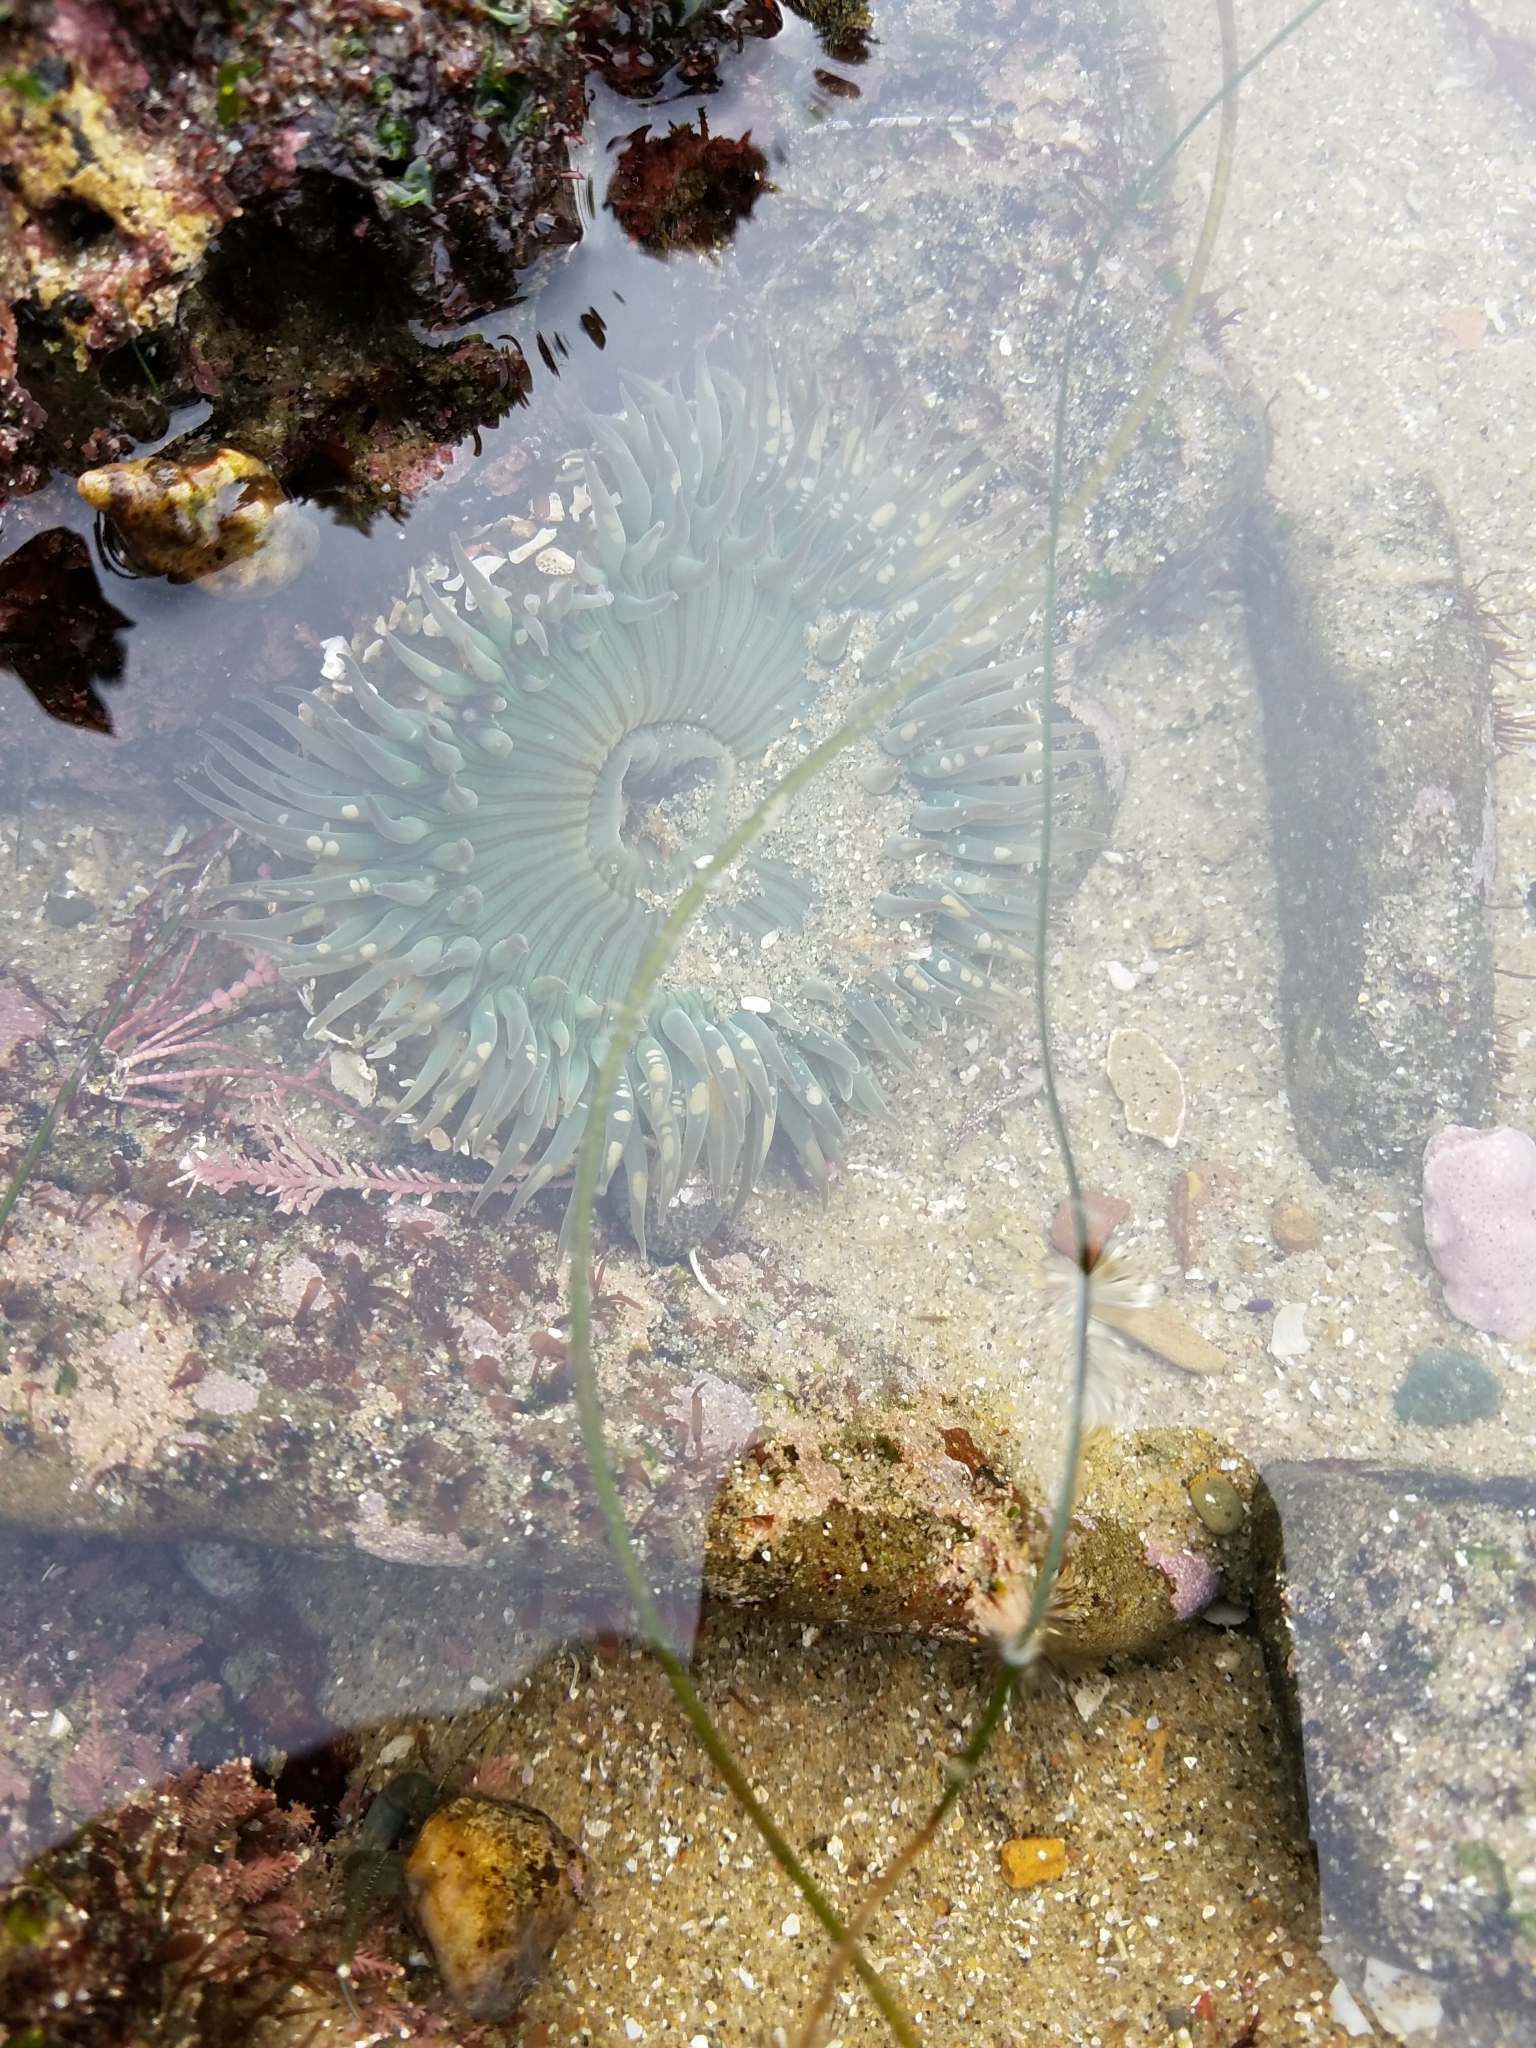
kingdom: Animalia
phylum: Cnidaria
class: Anthozoa
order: Actiniaria
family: Actiniidae
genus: Anthopleura
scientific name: Anthopleura sola
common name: Sun anemone
